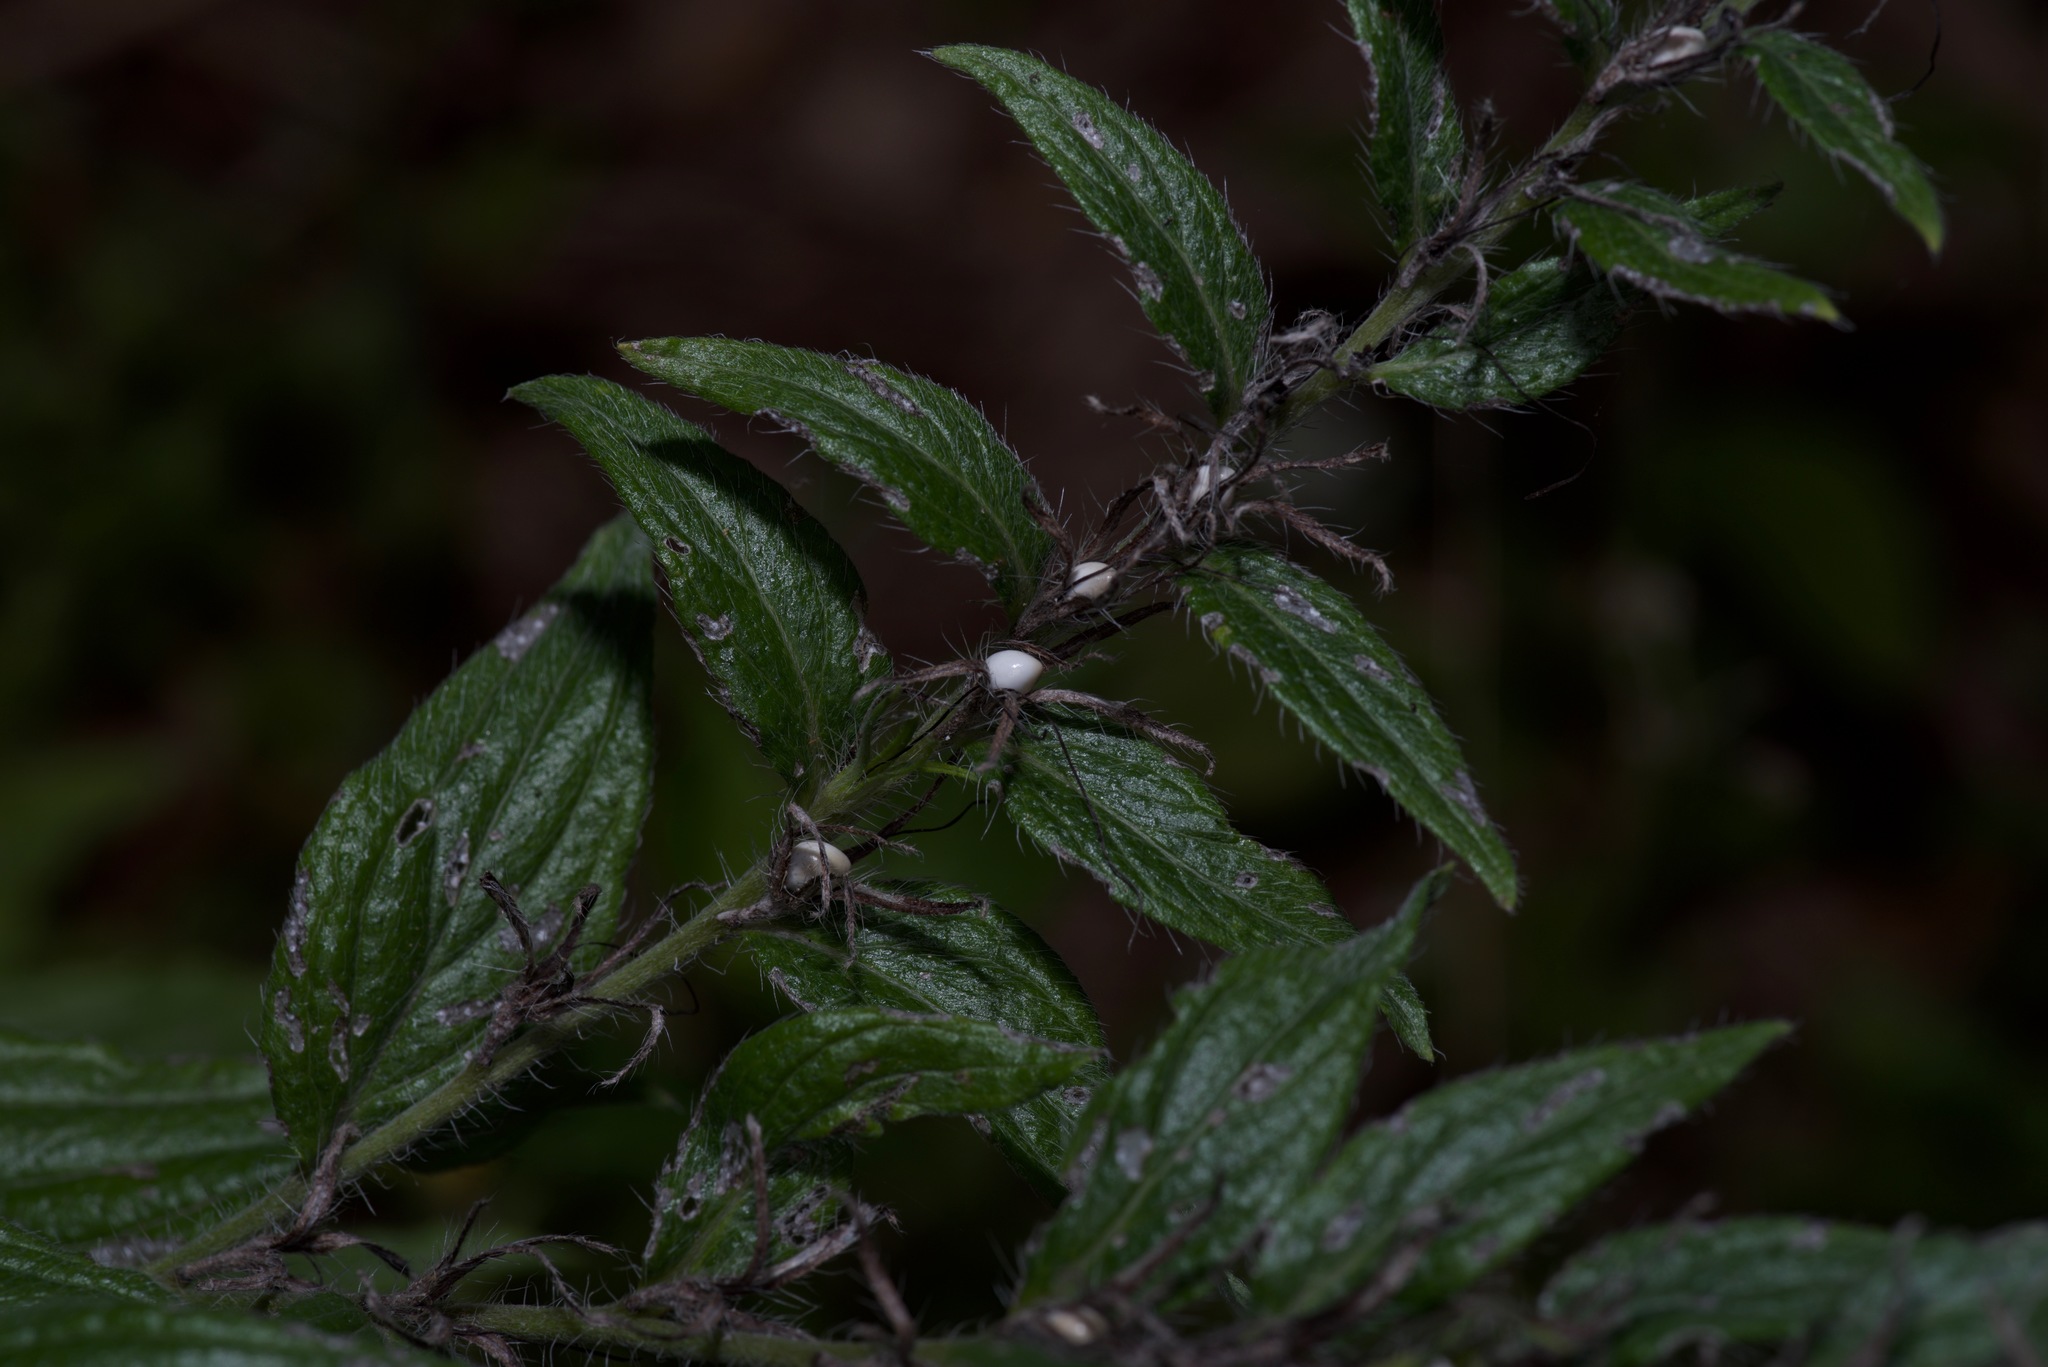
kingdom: Plantae
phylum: Tracheophyta
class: Magnoliopsida
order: Boraginales
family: Boraginaceae
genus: Lithospermum
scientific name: Lithospermum caroliniense
